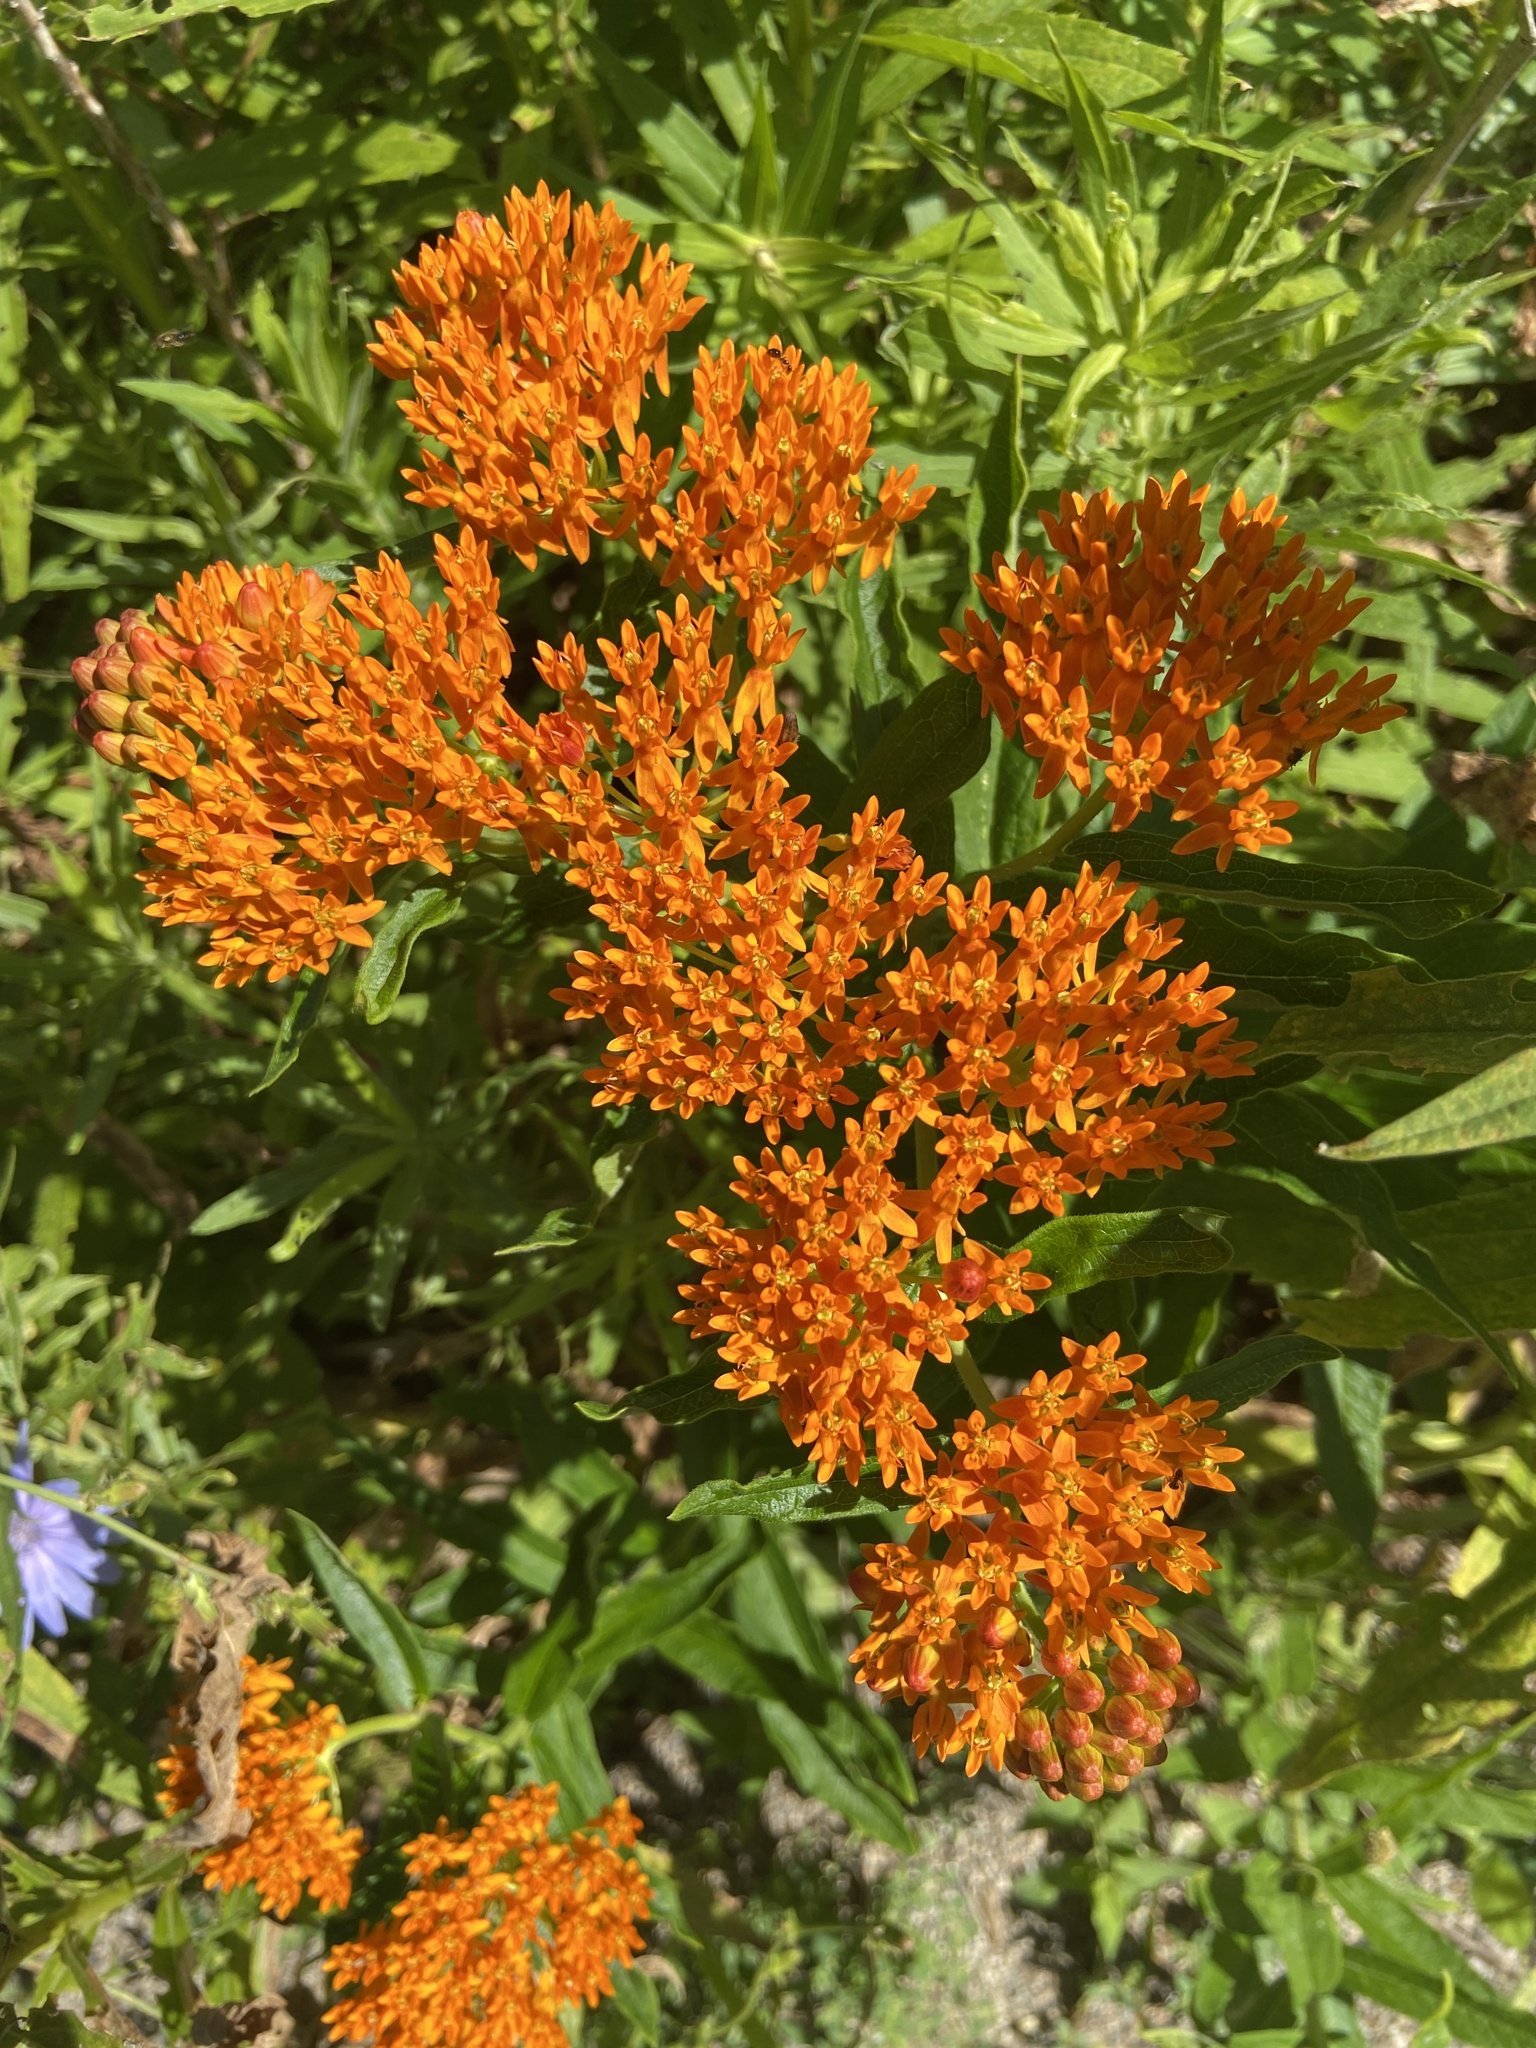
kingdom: Plantae
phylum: Tracheophyta
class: Magnoliopsida
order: Gentianales
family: Apocynaceae
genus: Asclepias
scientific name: Asclepias tuberosa
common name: Butterfly milkweed
